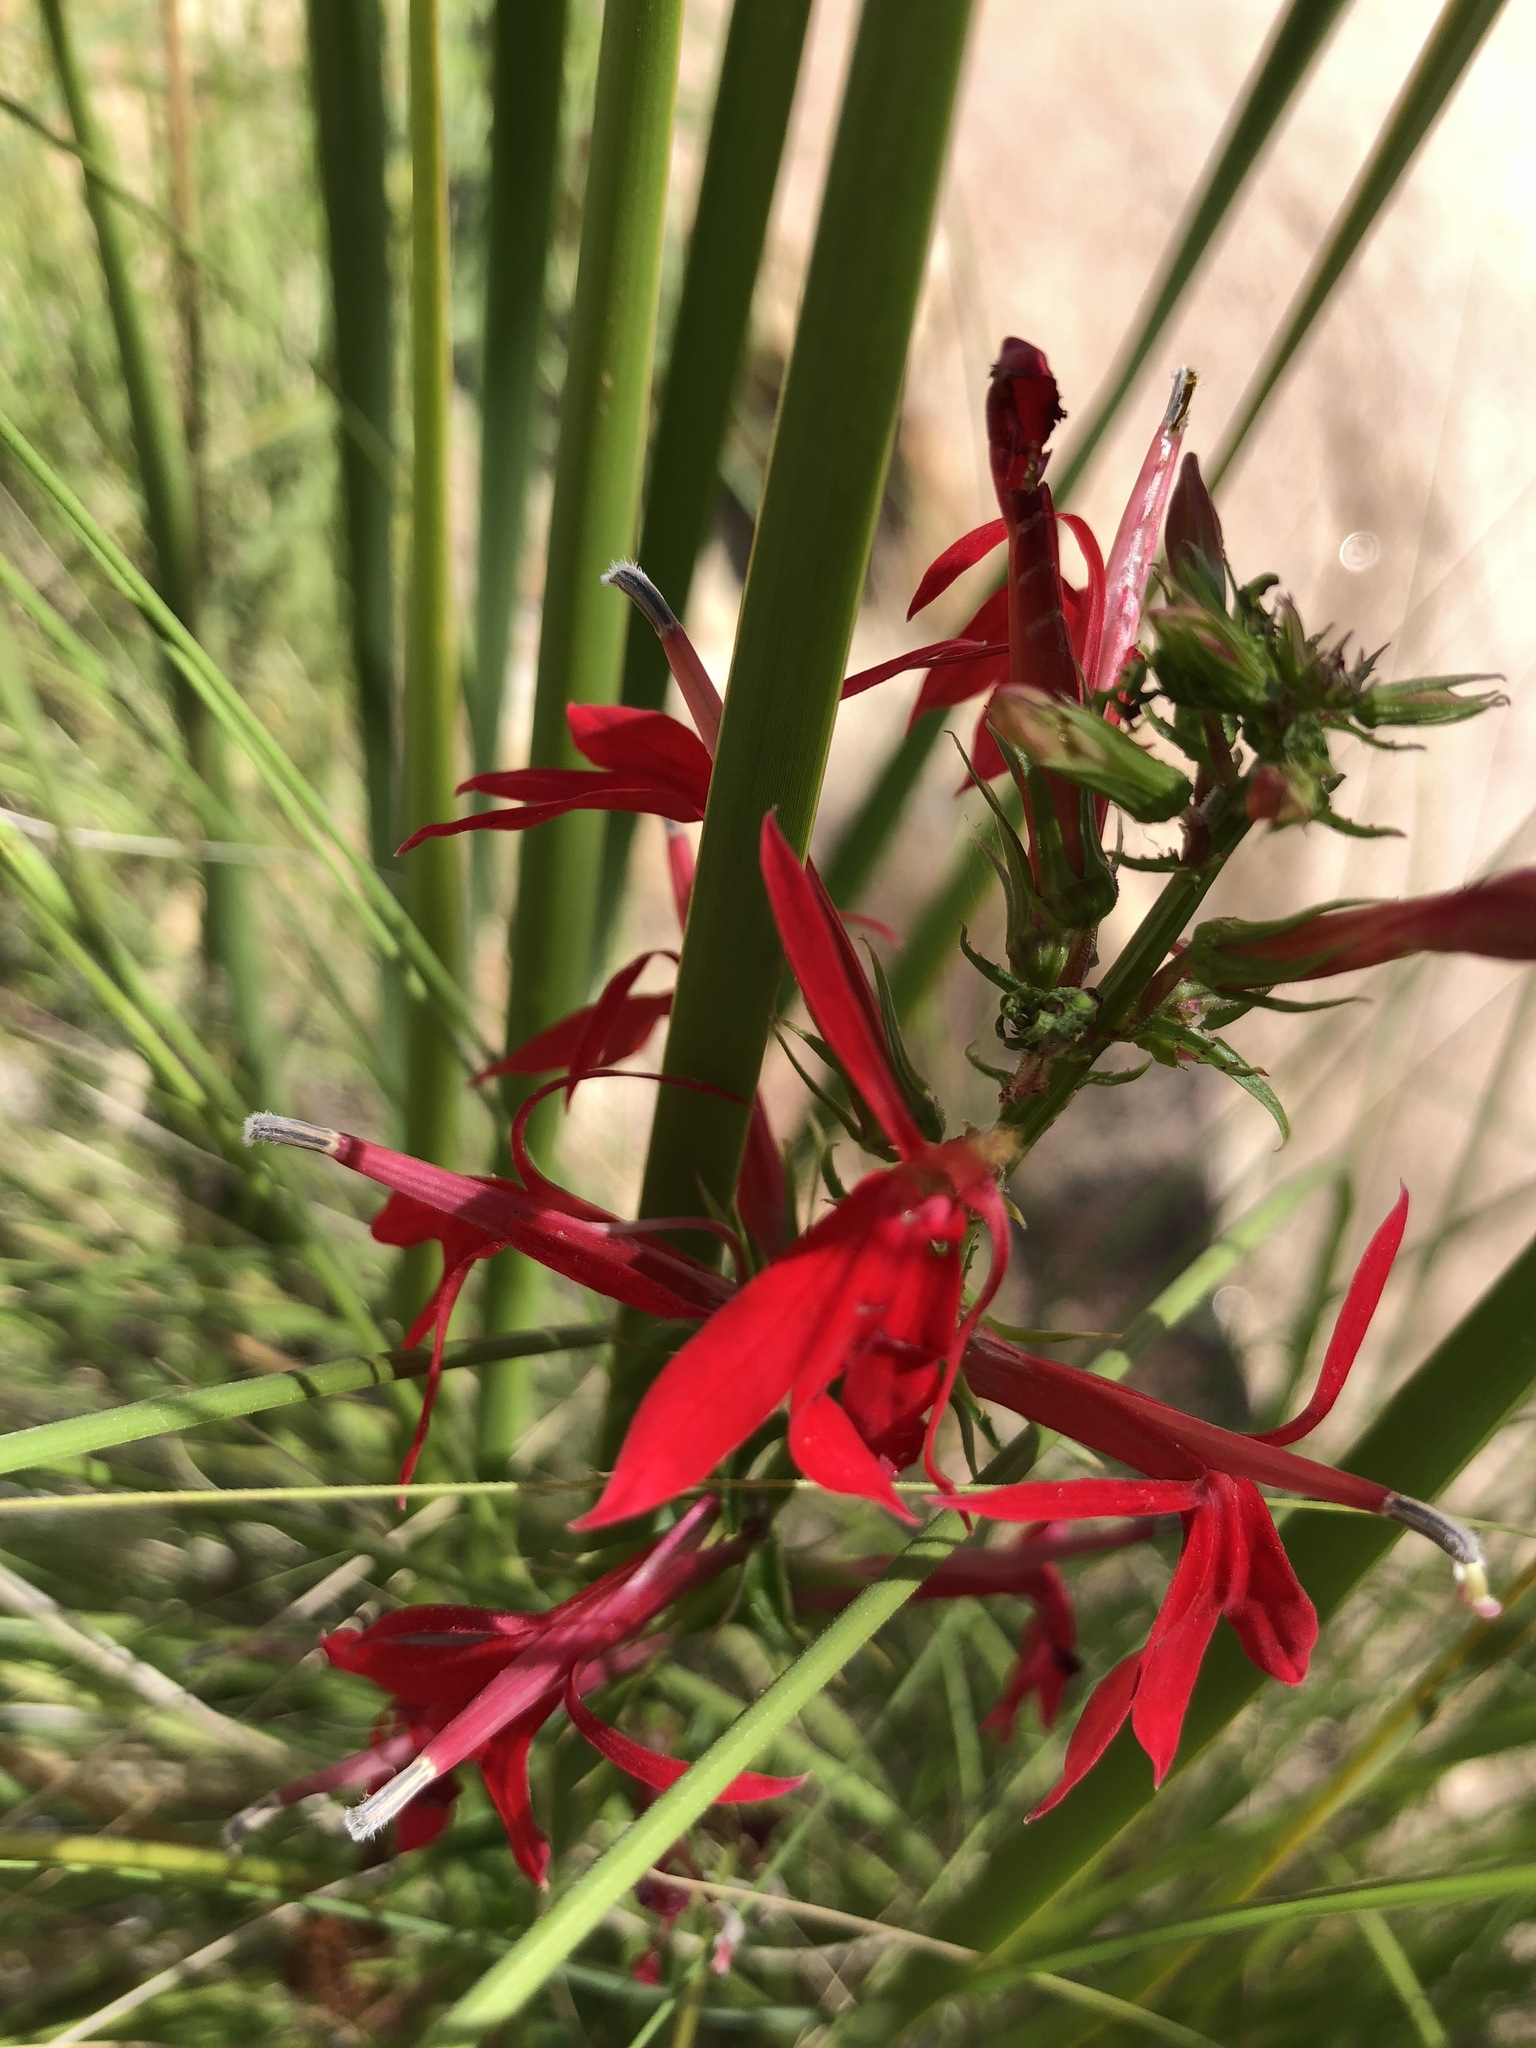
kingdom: Plantae
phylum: Tracheophyta
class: Magnoliopsida
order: Asterales
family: Campanulaceae
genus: Lobelia
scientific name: Lobelia cardinalis
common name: Cardinal flower
